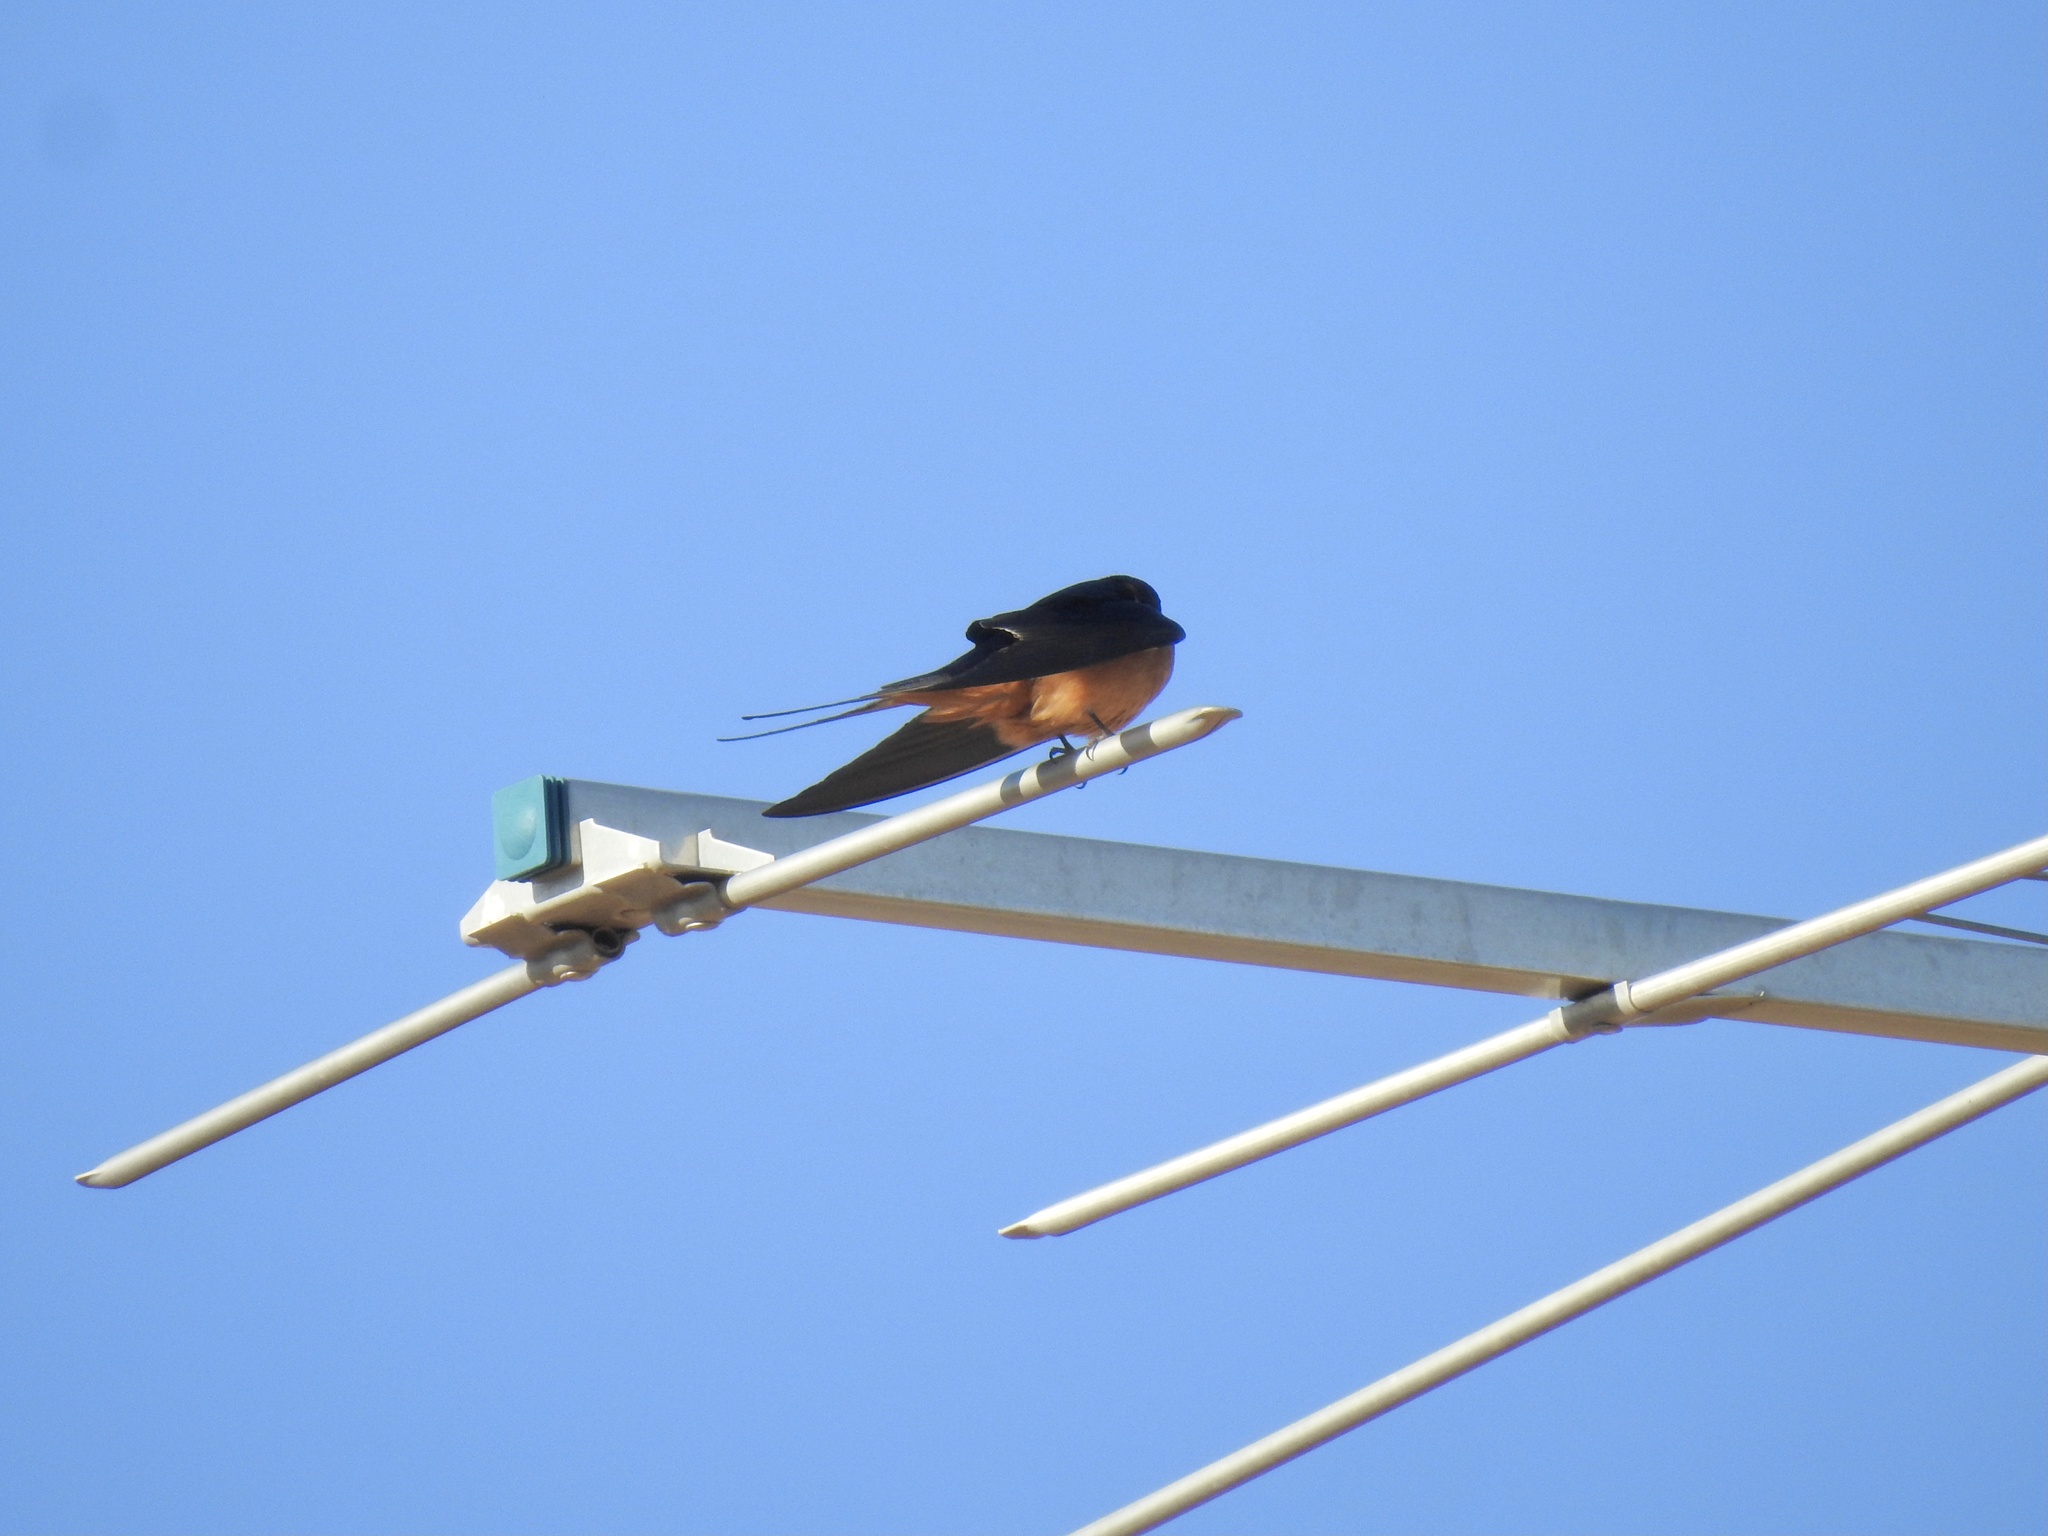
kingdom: Animalia
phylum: Chordata
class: Aves
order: Passeriformes
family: Hirundinidae
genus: Hirundo
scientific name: Hirundo rustica
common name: Barn swallow
